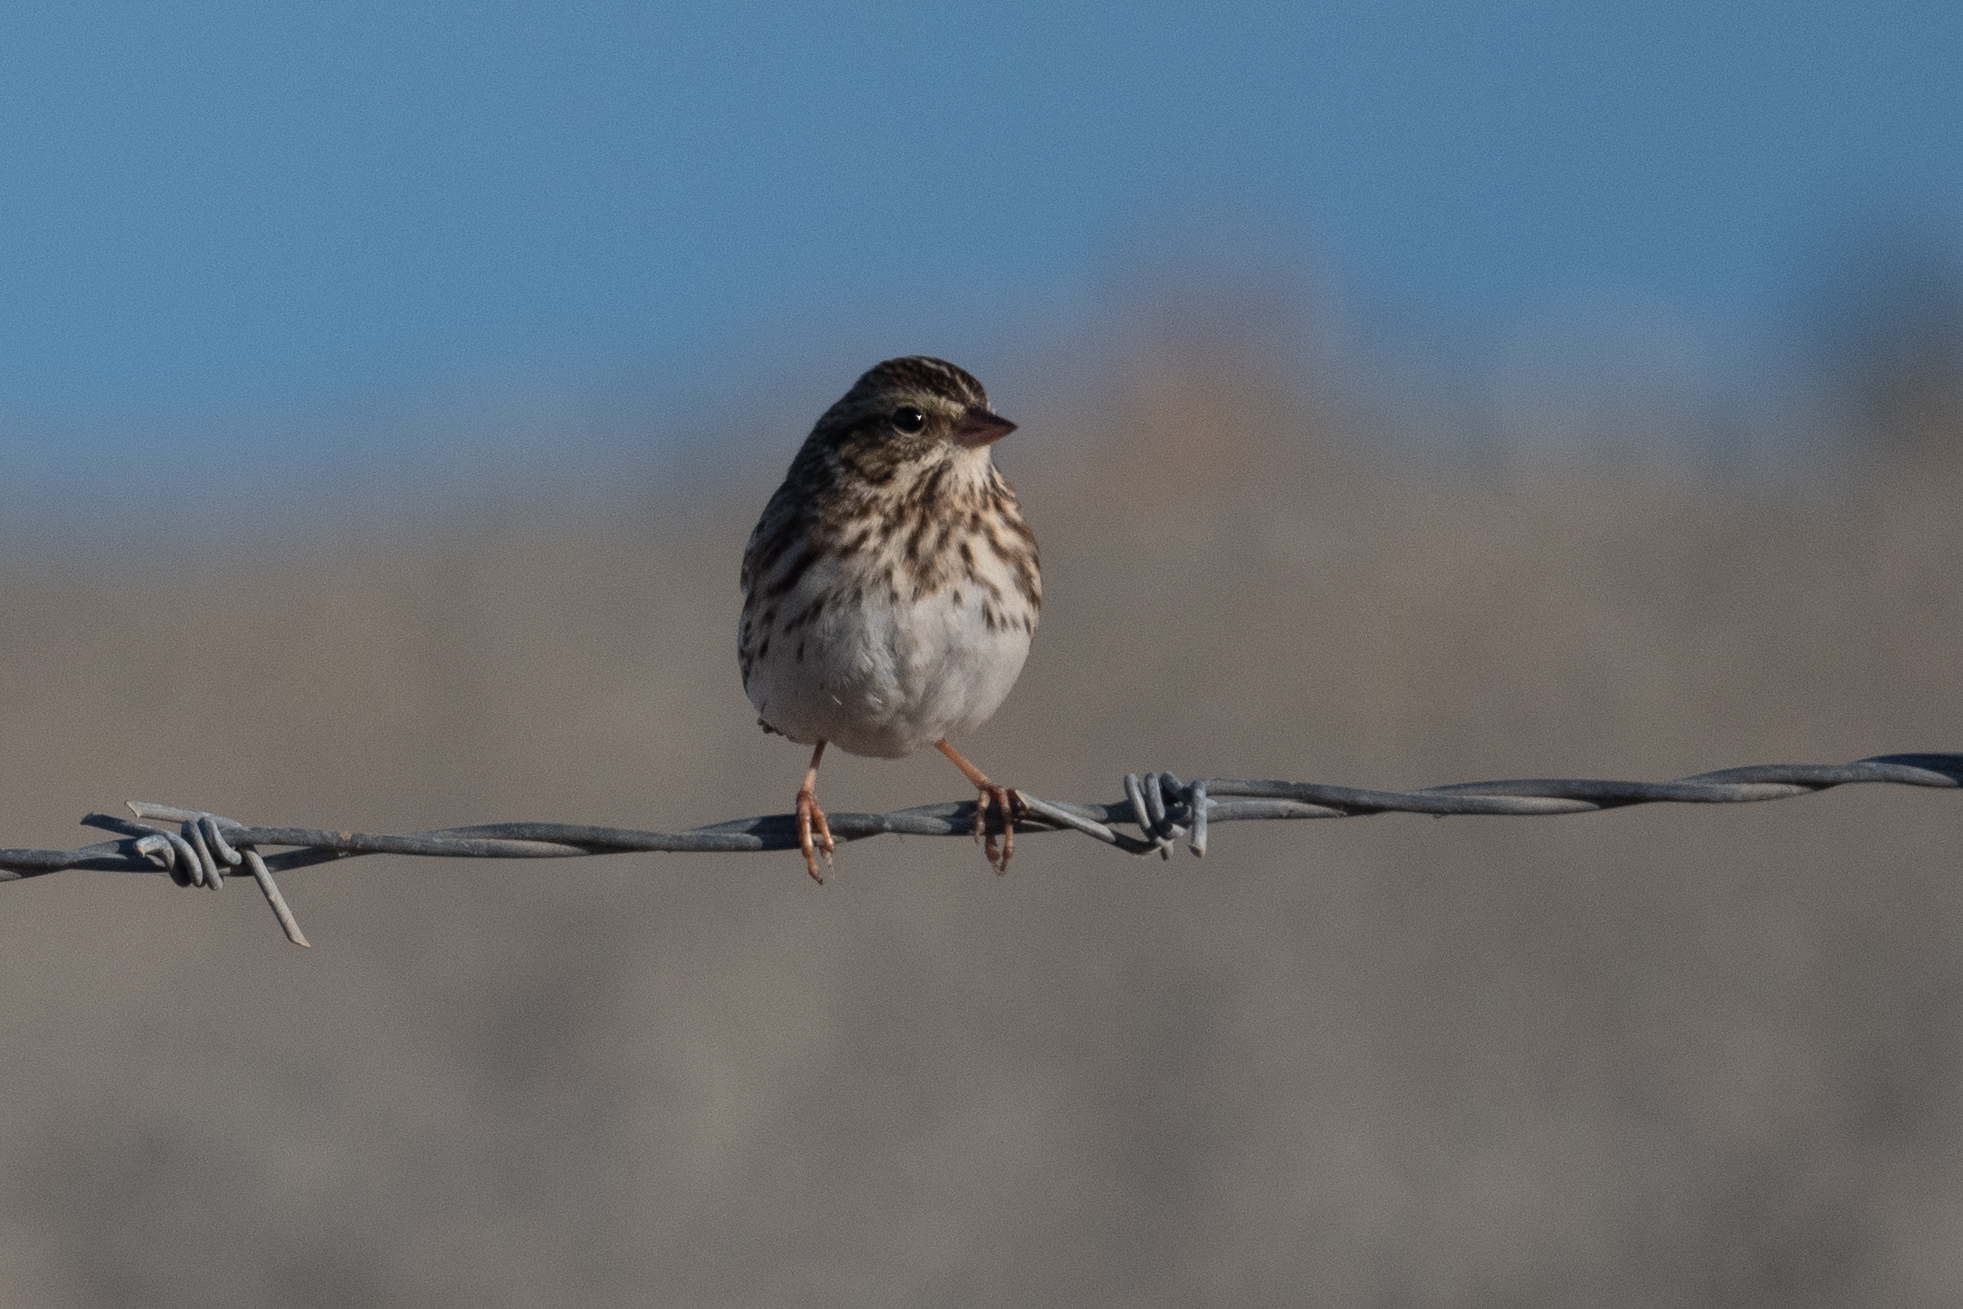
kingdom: Animalia
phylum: Chordata
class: Aves
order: Passeriformes
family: Passerellidae
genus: Passerculus
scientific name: Passerculus sandwichensis
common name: Savannah sparrow
